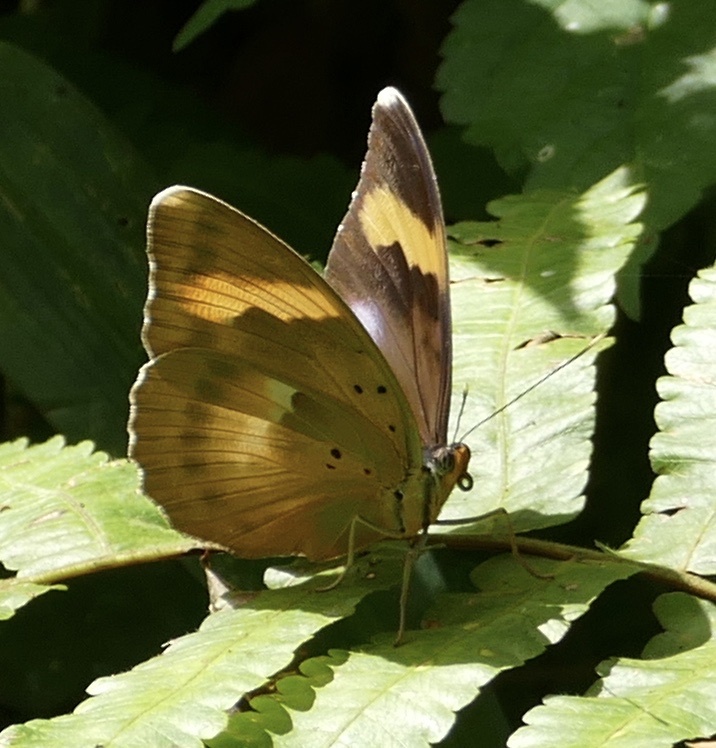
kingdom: Animalia
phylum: Arthropoda
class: Insecta
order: Lepidoptera
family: Nymphalidae
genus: Euphaedra
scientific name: Euphaedra medon
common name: Widespread forester
